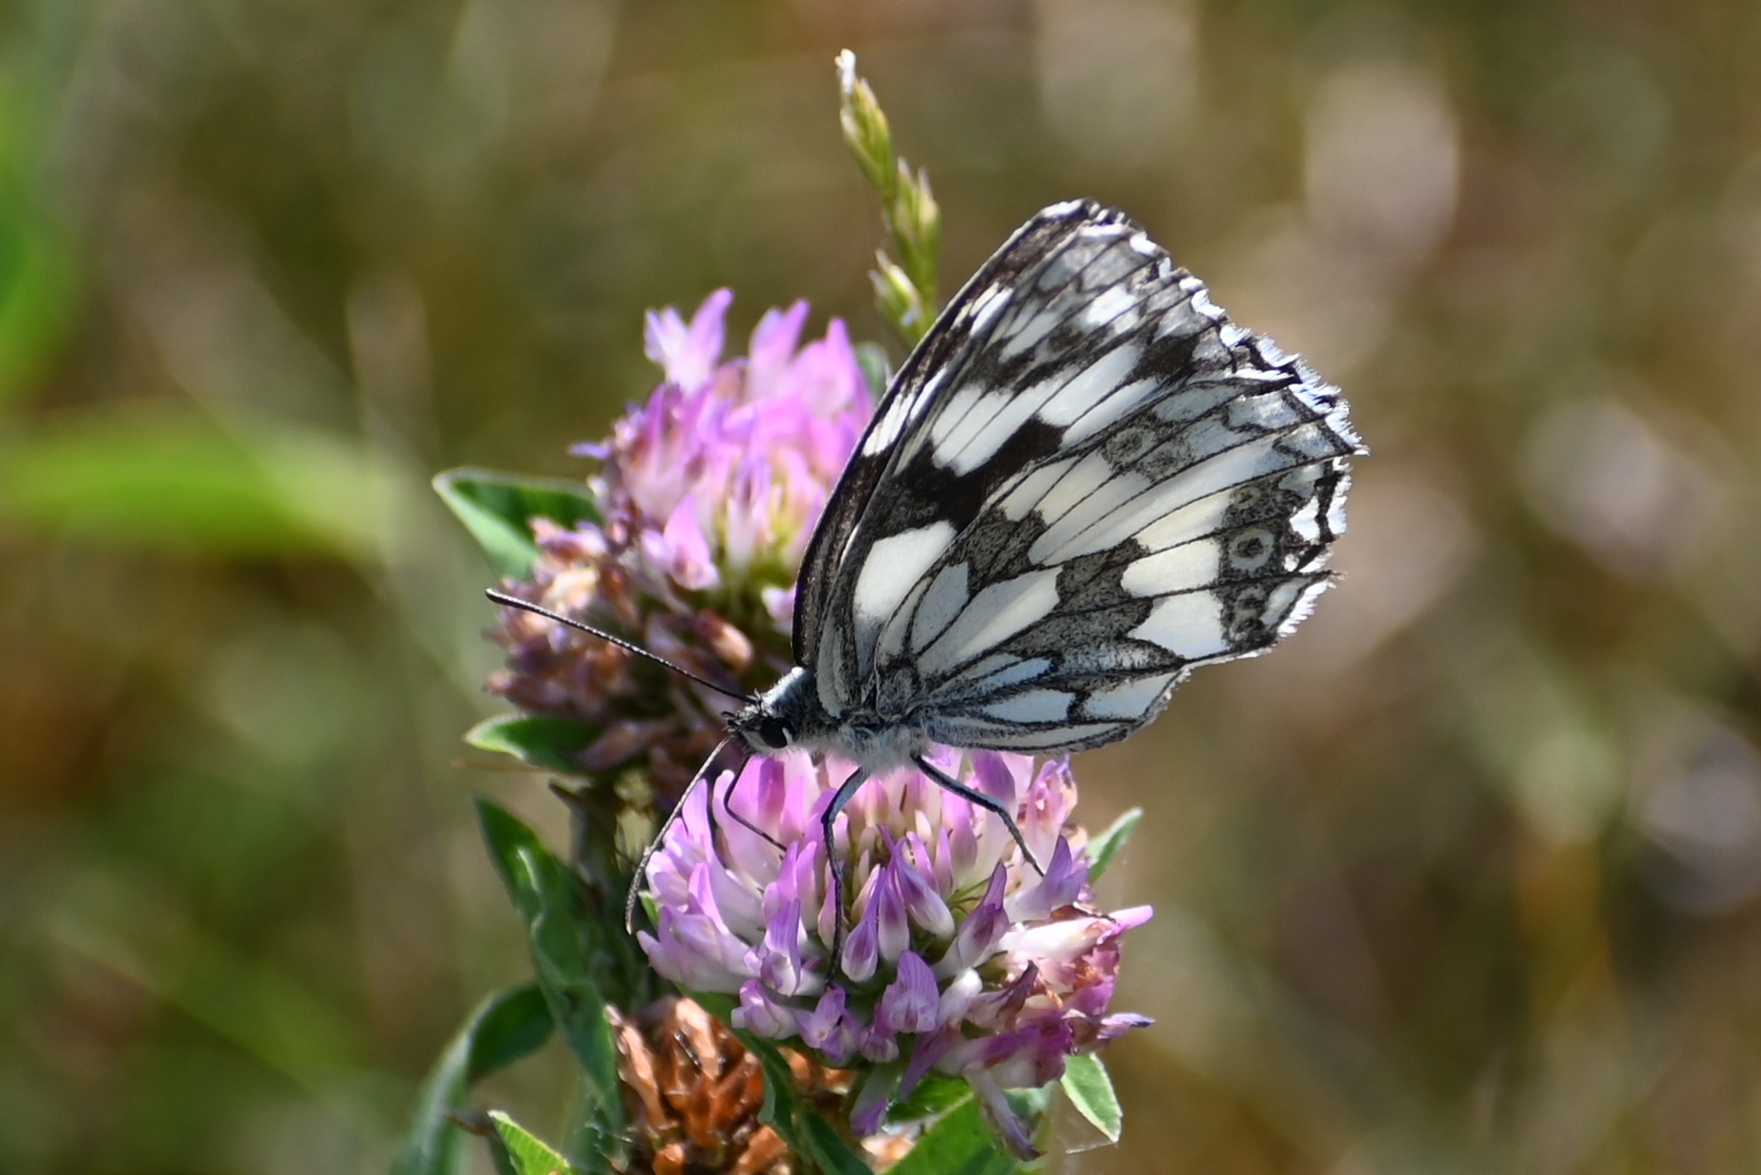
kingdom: Animalia
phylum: Arthropoda
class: Insecta
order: Lepidoptera
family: Nymphalidae
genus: Melanargia
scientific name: Melanargia galathea
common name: Marbled white
